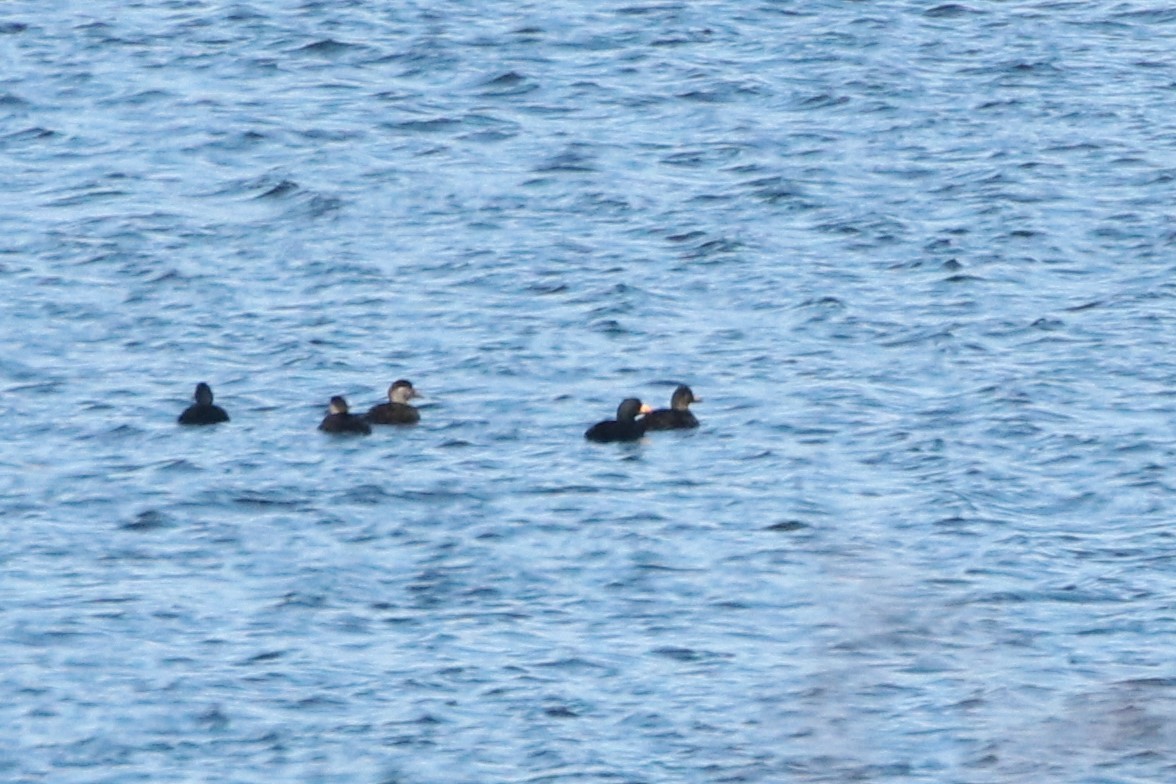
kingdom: Animalia
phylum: Chordata
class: Aves
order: Anseriformes
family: Anatidae
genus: Melanitta
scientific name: Melanitta americana
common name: Black scoter
